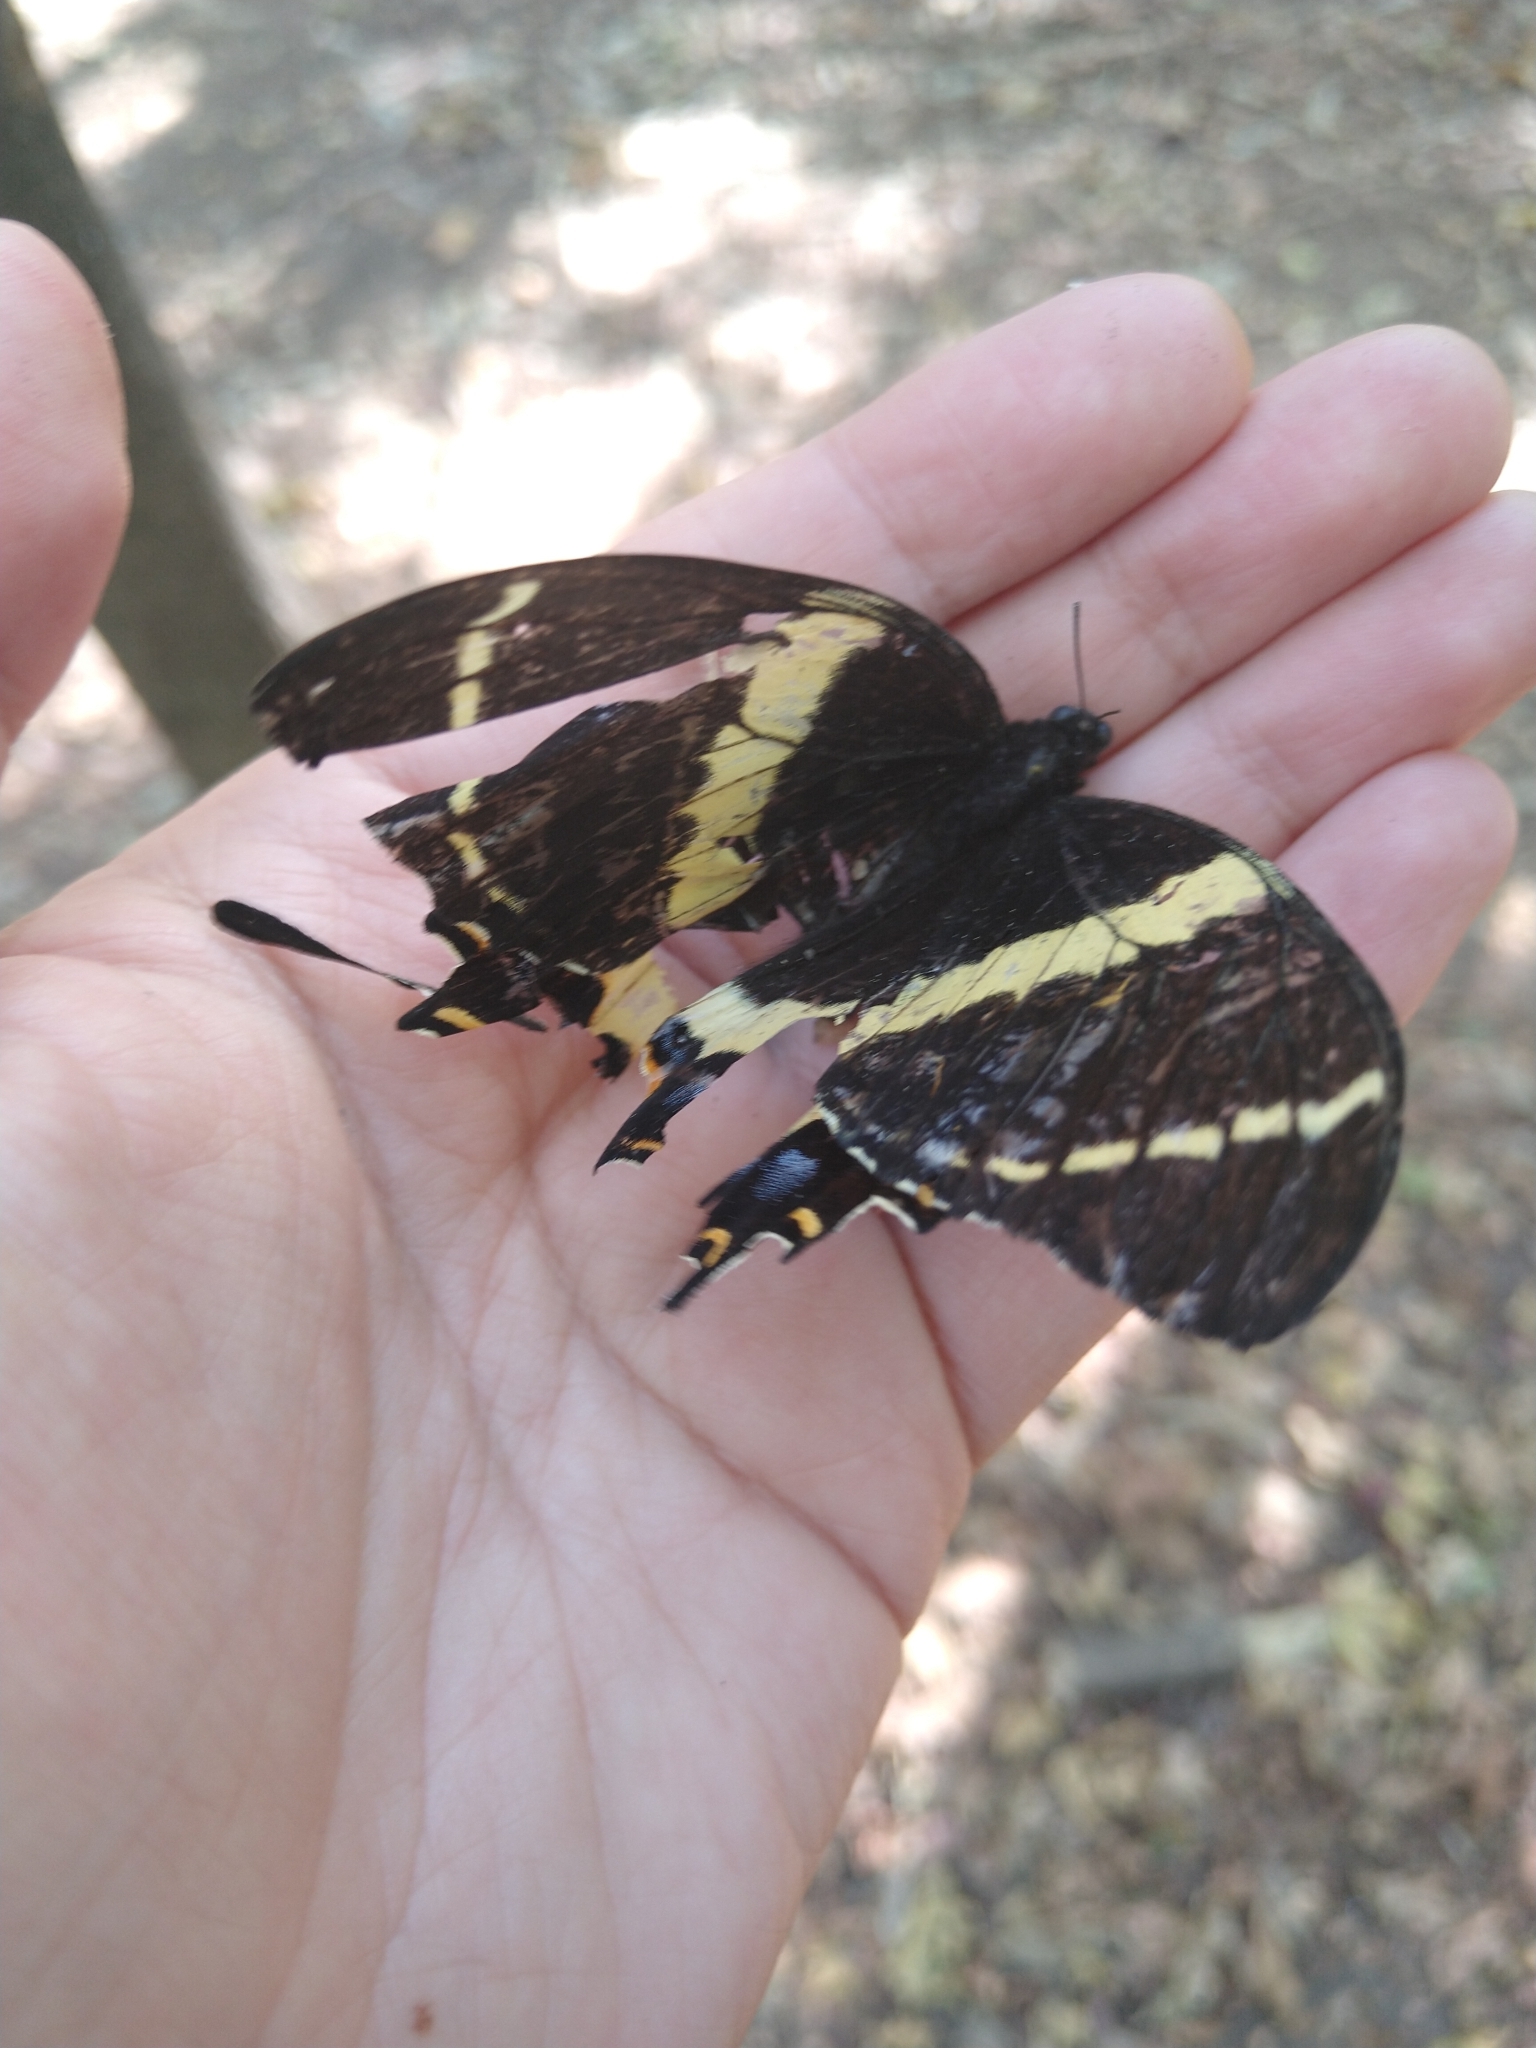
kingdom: Animalia
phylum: Arthropoda
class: Insecta
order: Lepidoptera
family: Papilionidae
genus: Papilio
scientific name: Papilio garamas
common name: Magnificent swallowtail
